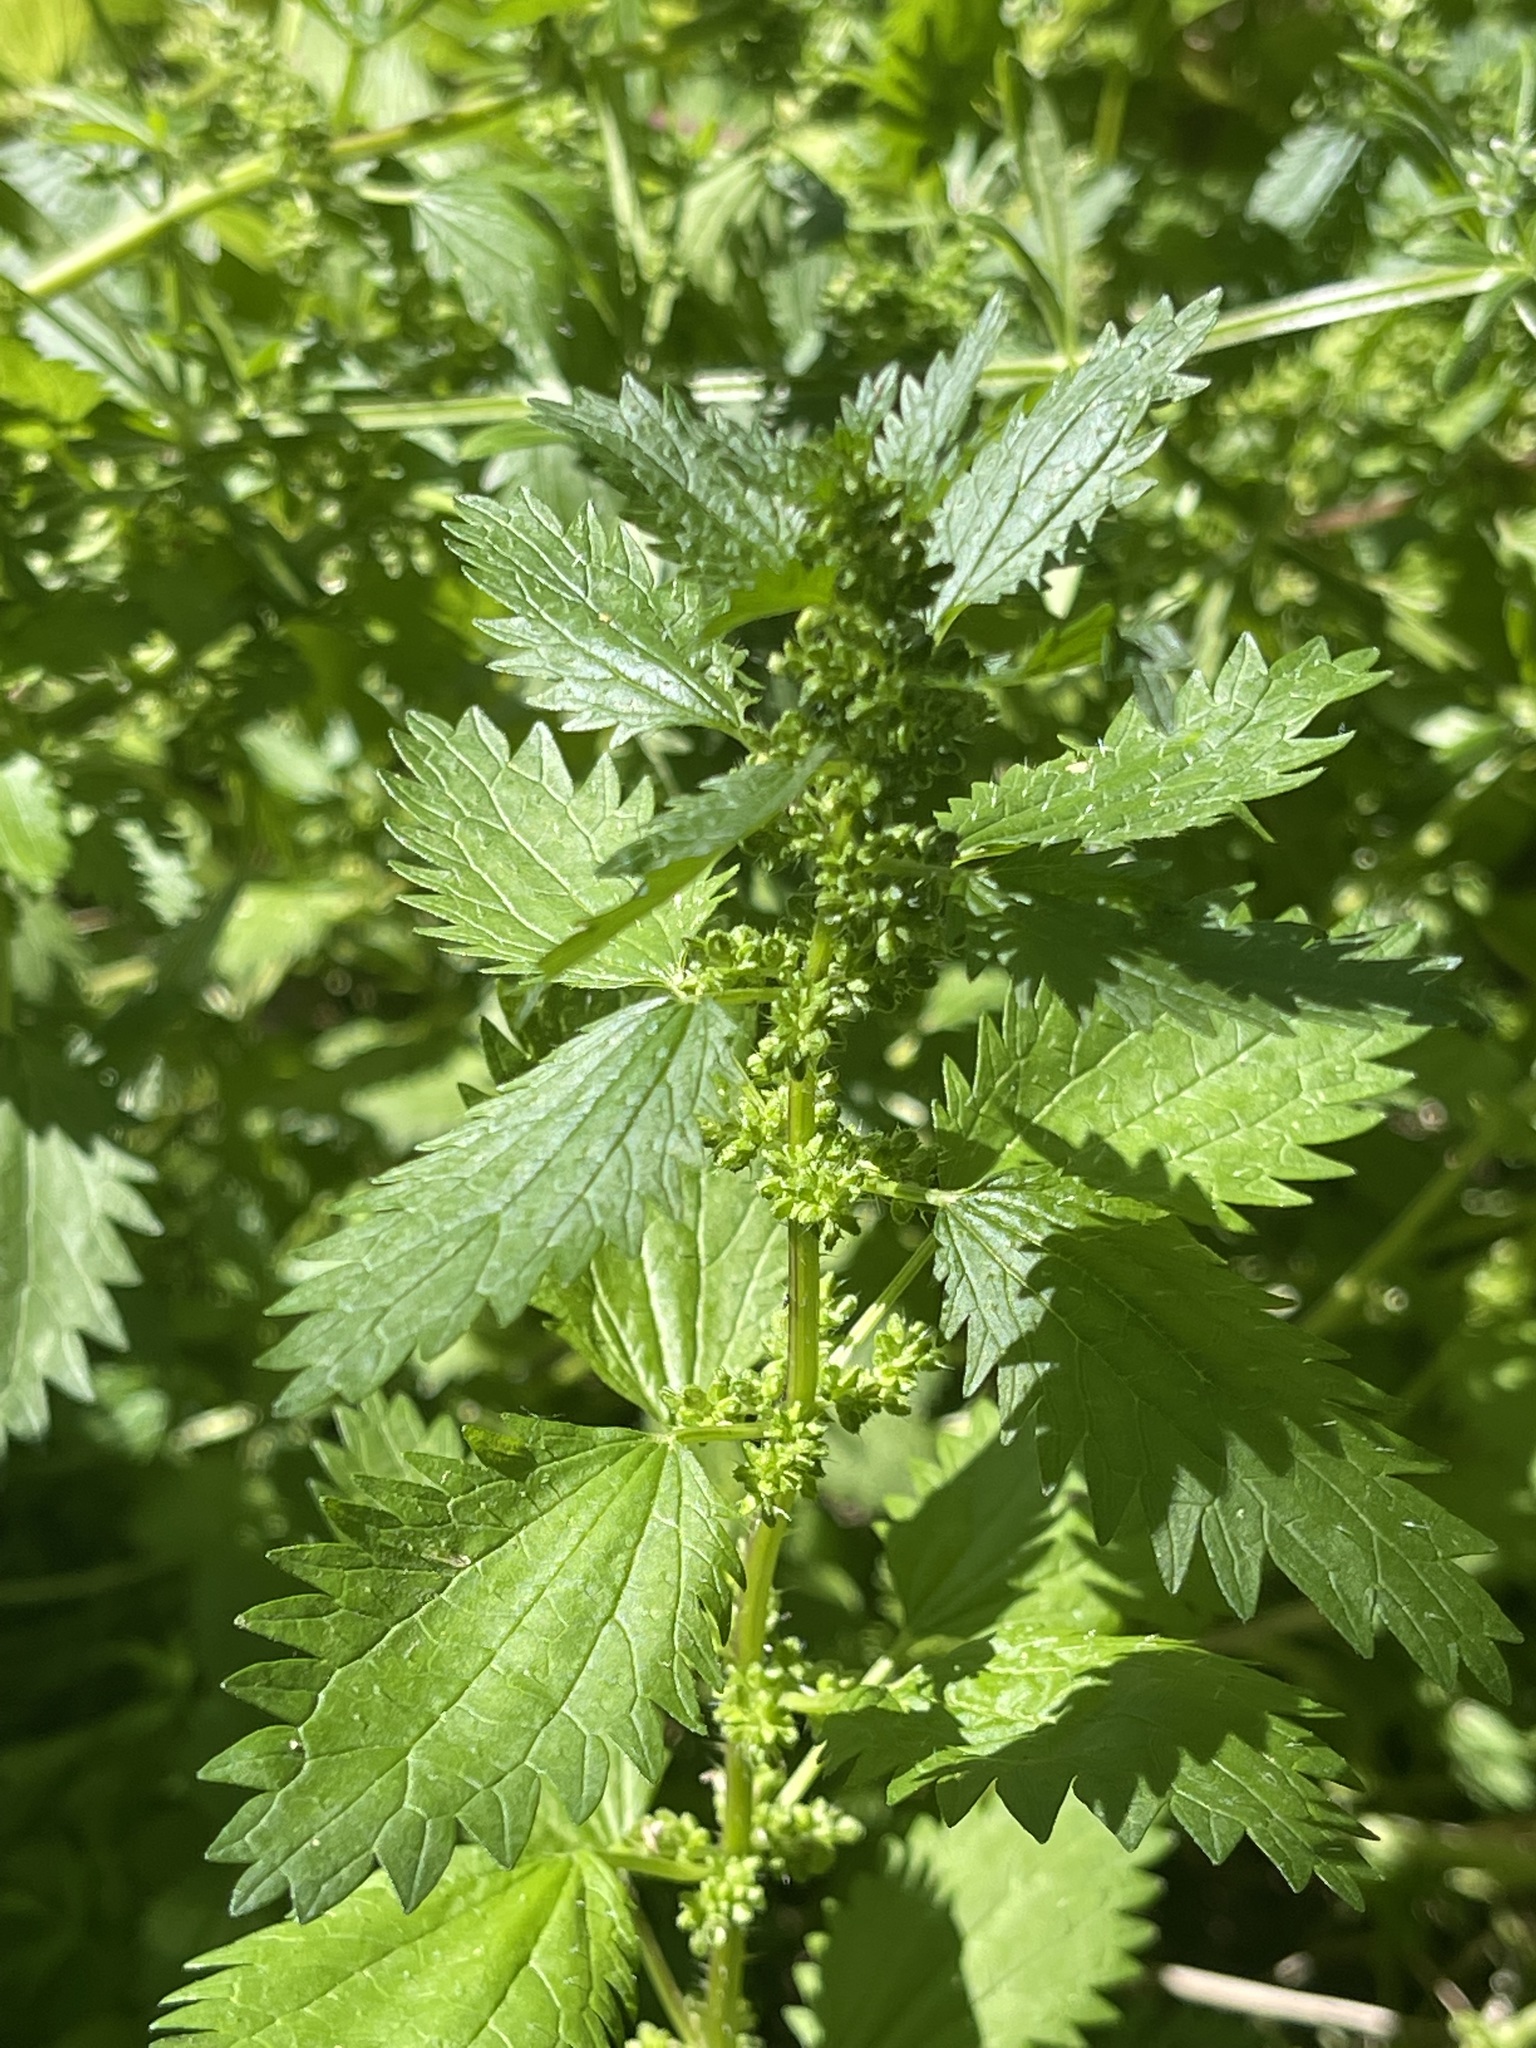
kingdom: Plantae
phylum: Tracheophyta
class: Magnoliopsida
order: Rosales
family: Urticaceae
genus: Urtica
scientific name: Urtica urens
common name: Dwarf nettle
